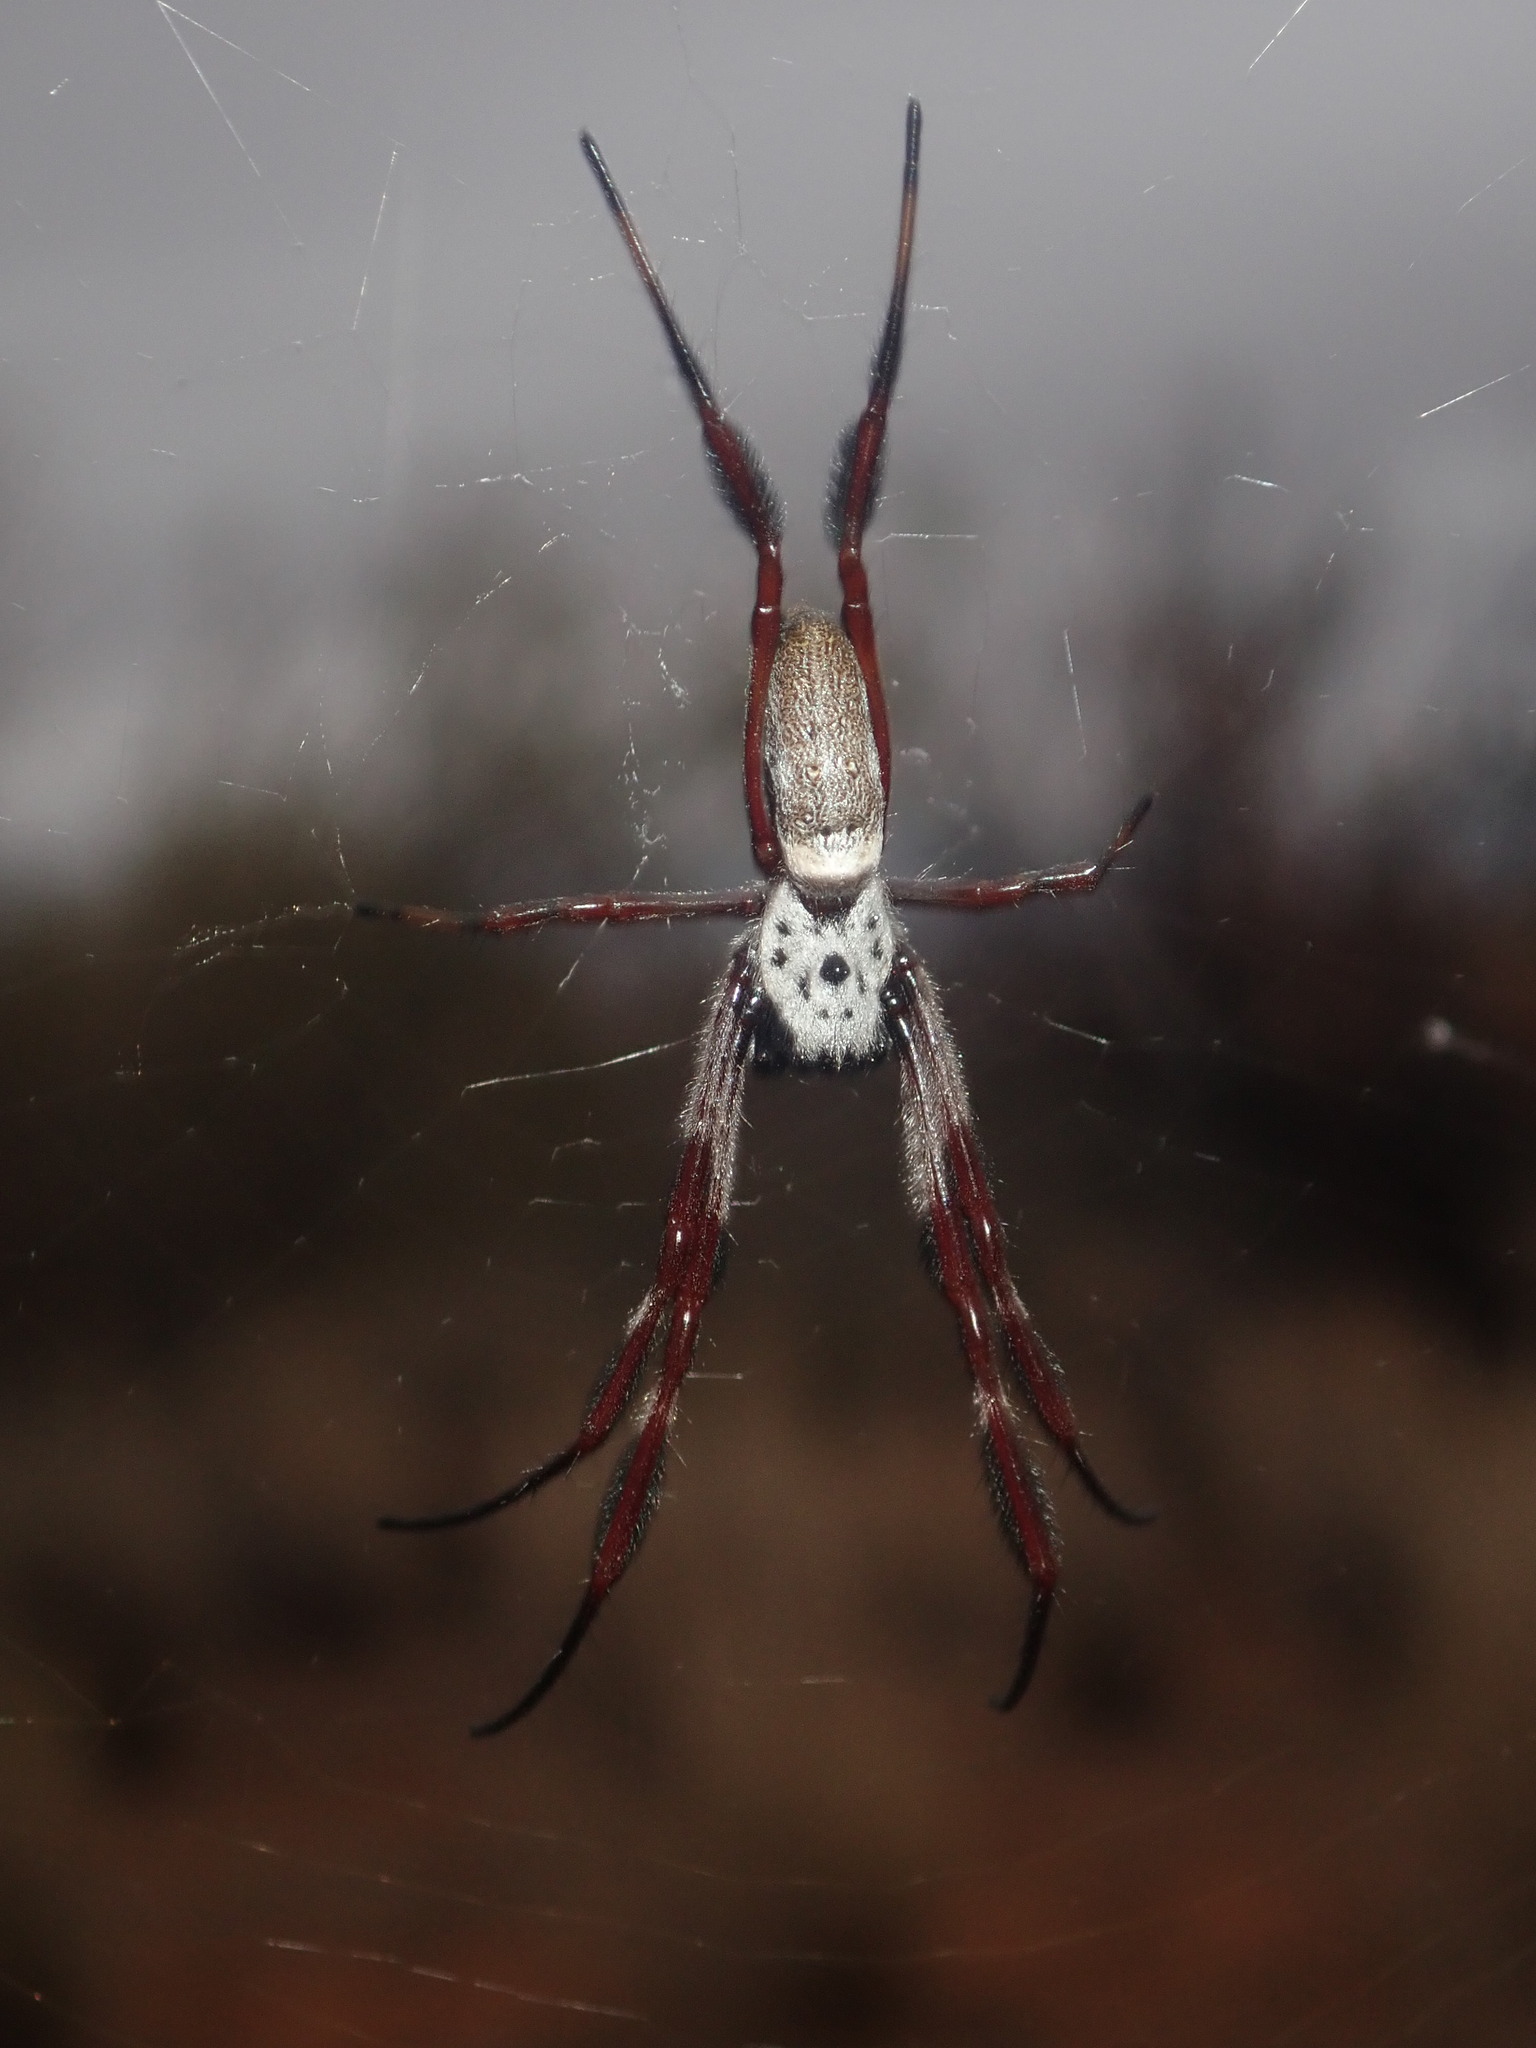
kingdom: Animalia
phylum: Arthropoda
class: Arachnida
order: Araneae
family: Araneidae
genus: Trichonephila
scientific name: Trichonephila edulis
